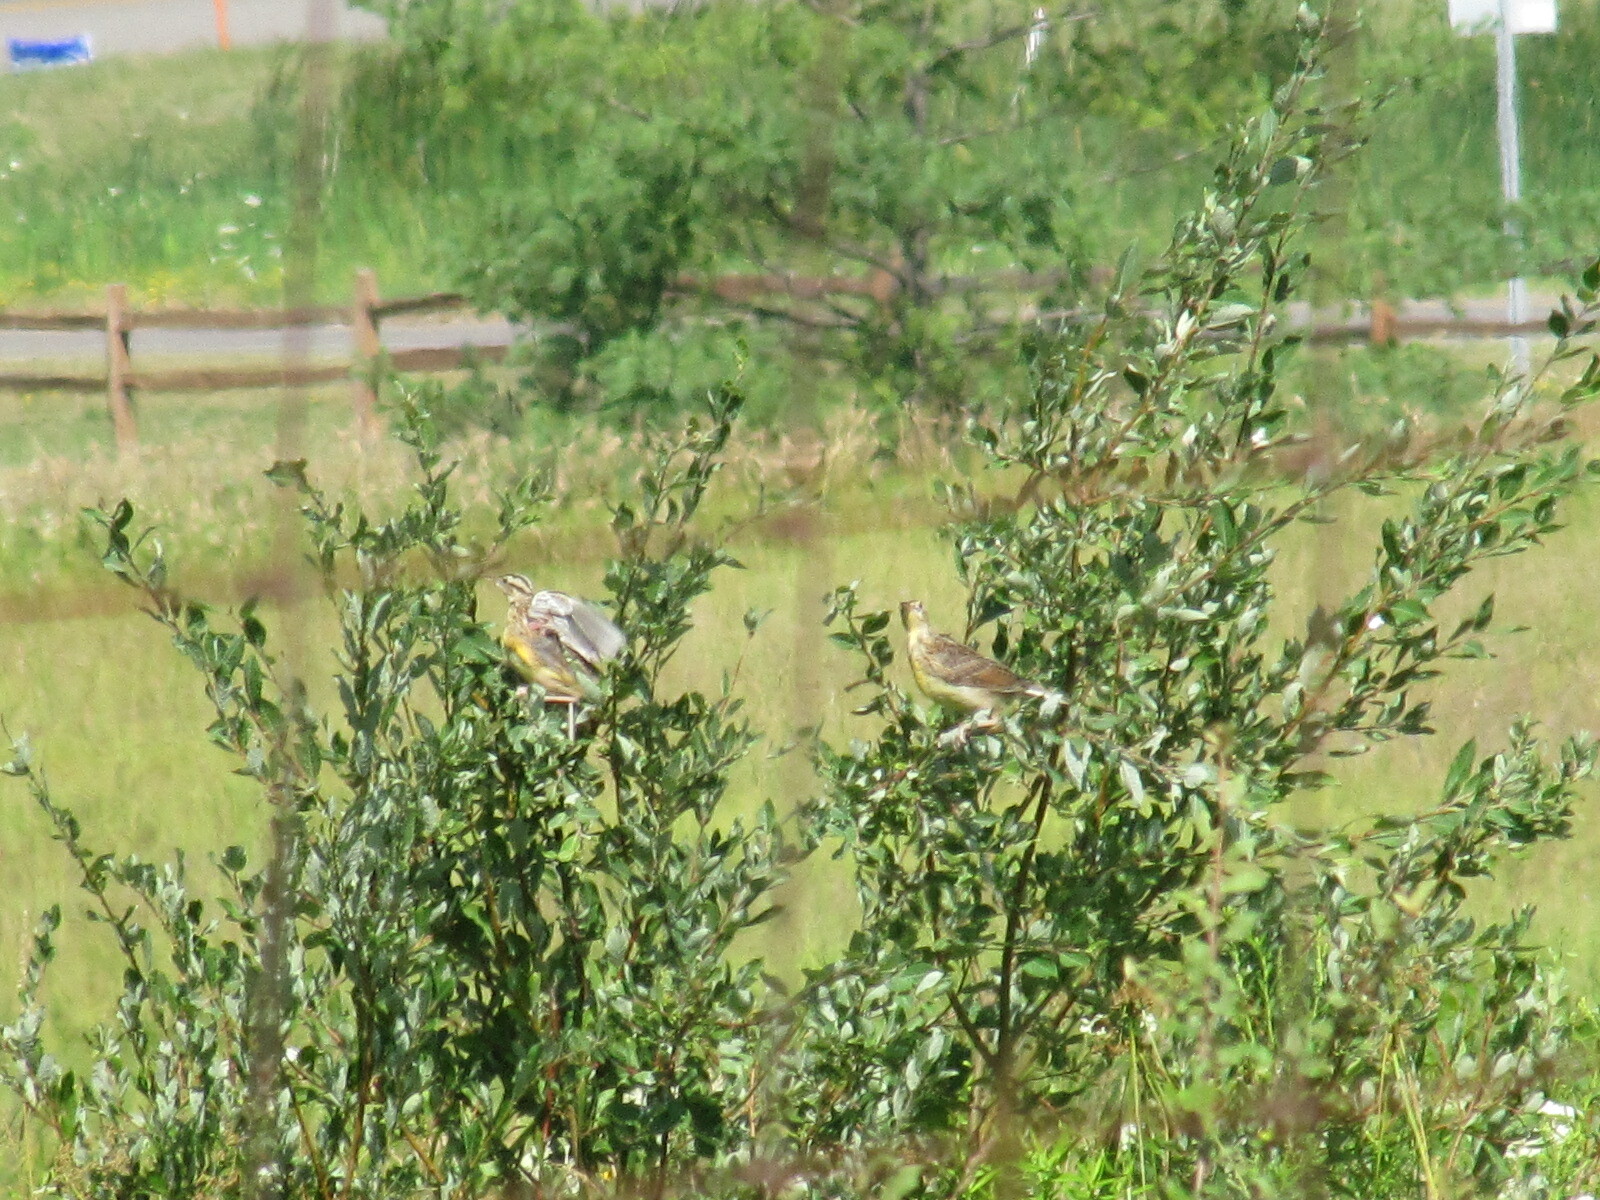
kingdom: Animalia
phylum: Chordata
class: Aves
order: Passeriformes
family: Icteridae
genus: Sturnella
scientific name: Sturnella magna
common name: Eastern meadowlark
